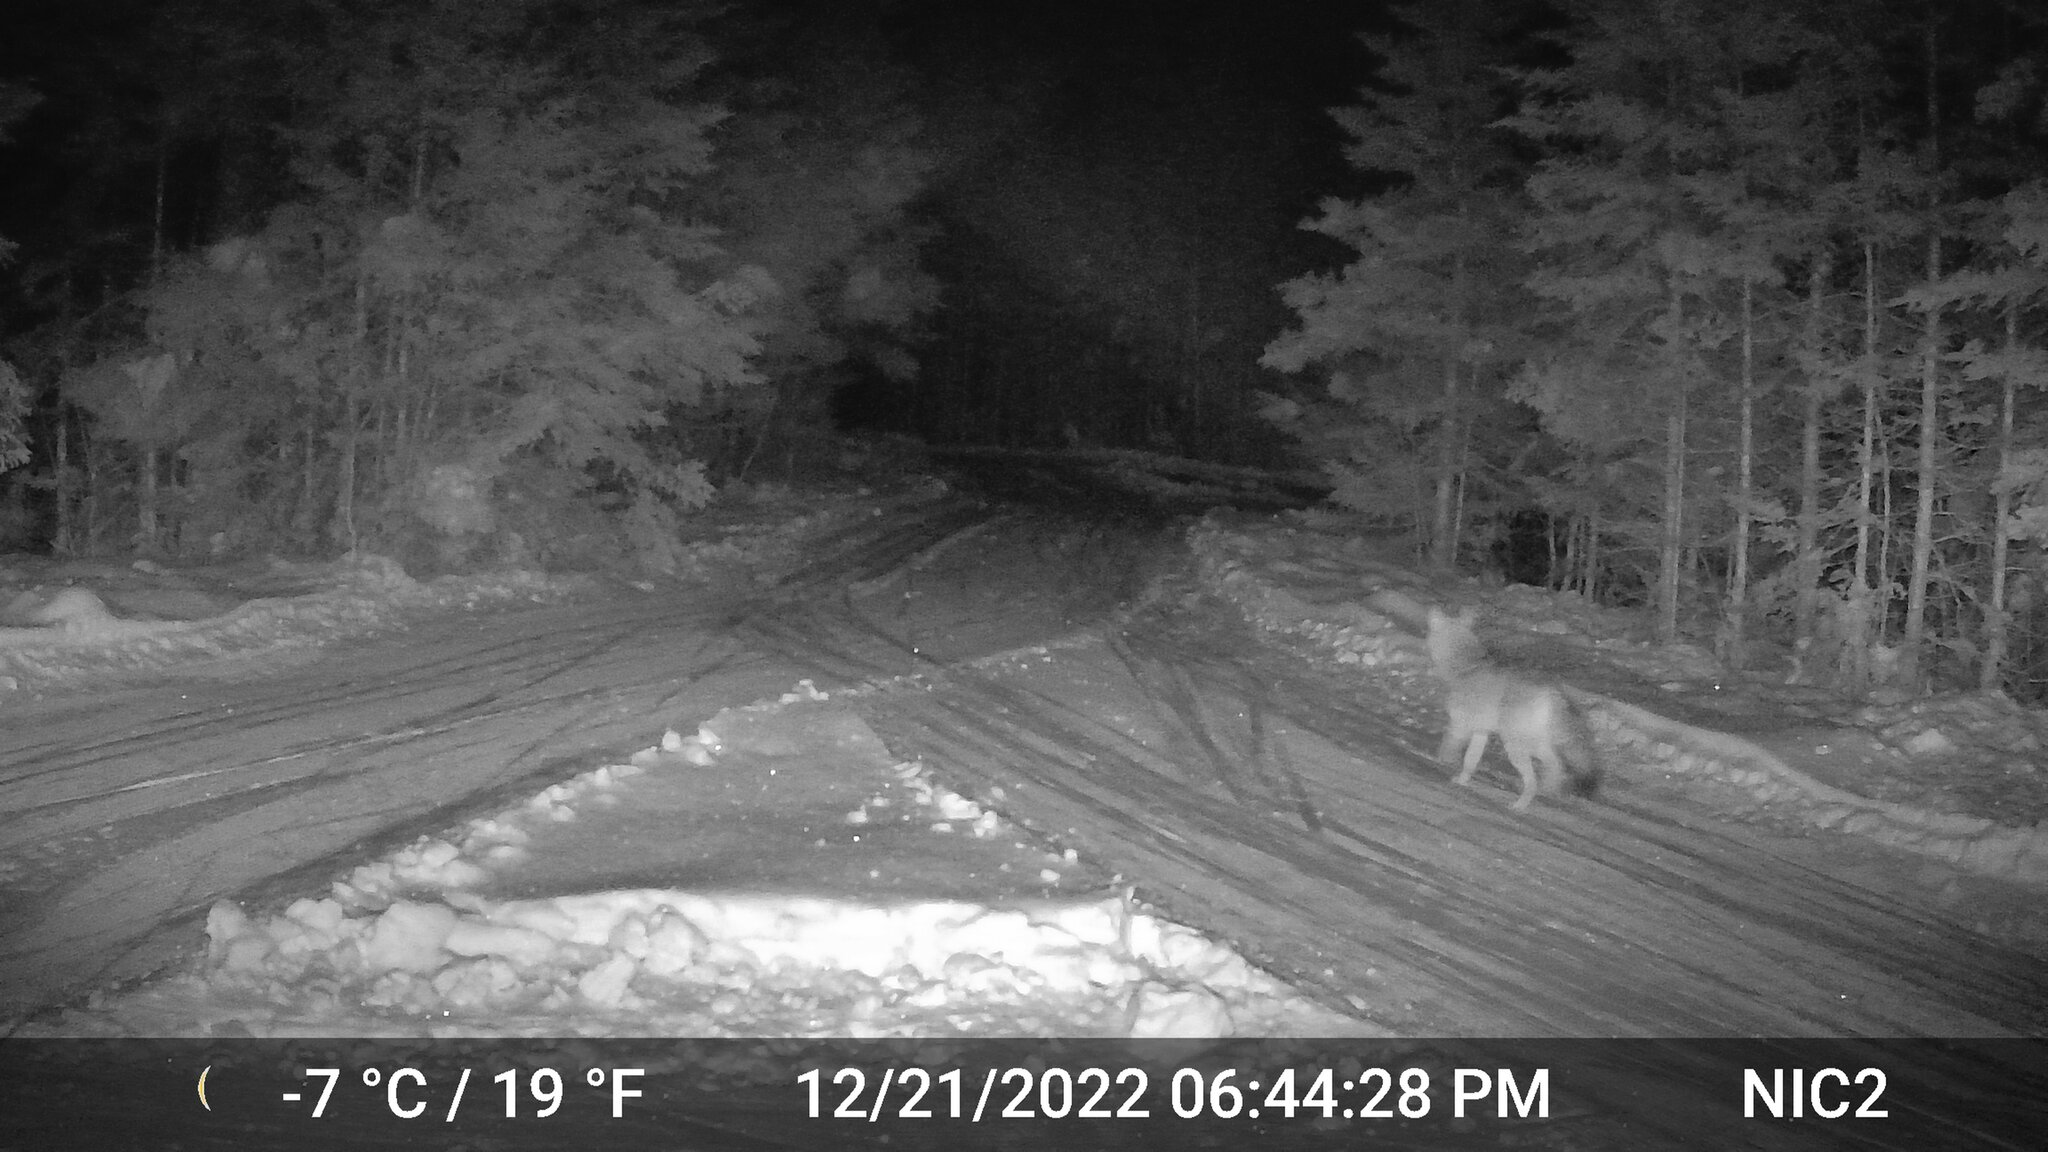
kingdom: Animalia
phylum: Chordata
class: Mammalia
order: Carnivora
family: Canidae
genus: Canis
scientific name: Canis latrans
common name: Coyote
